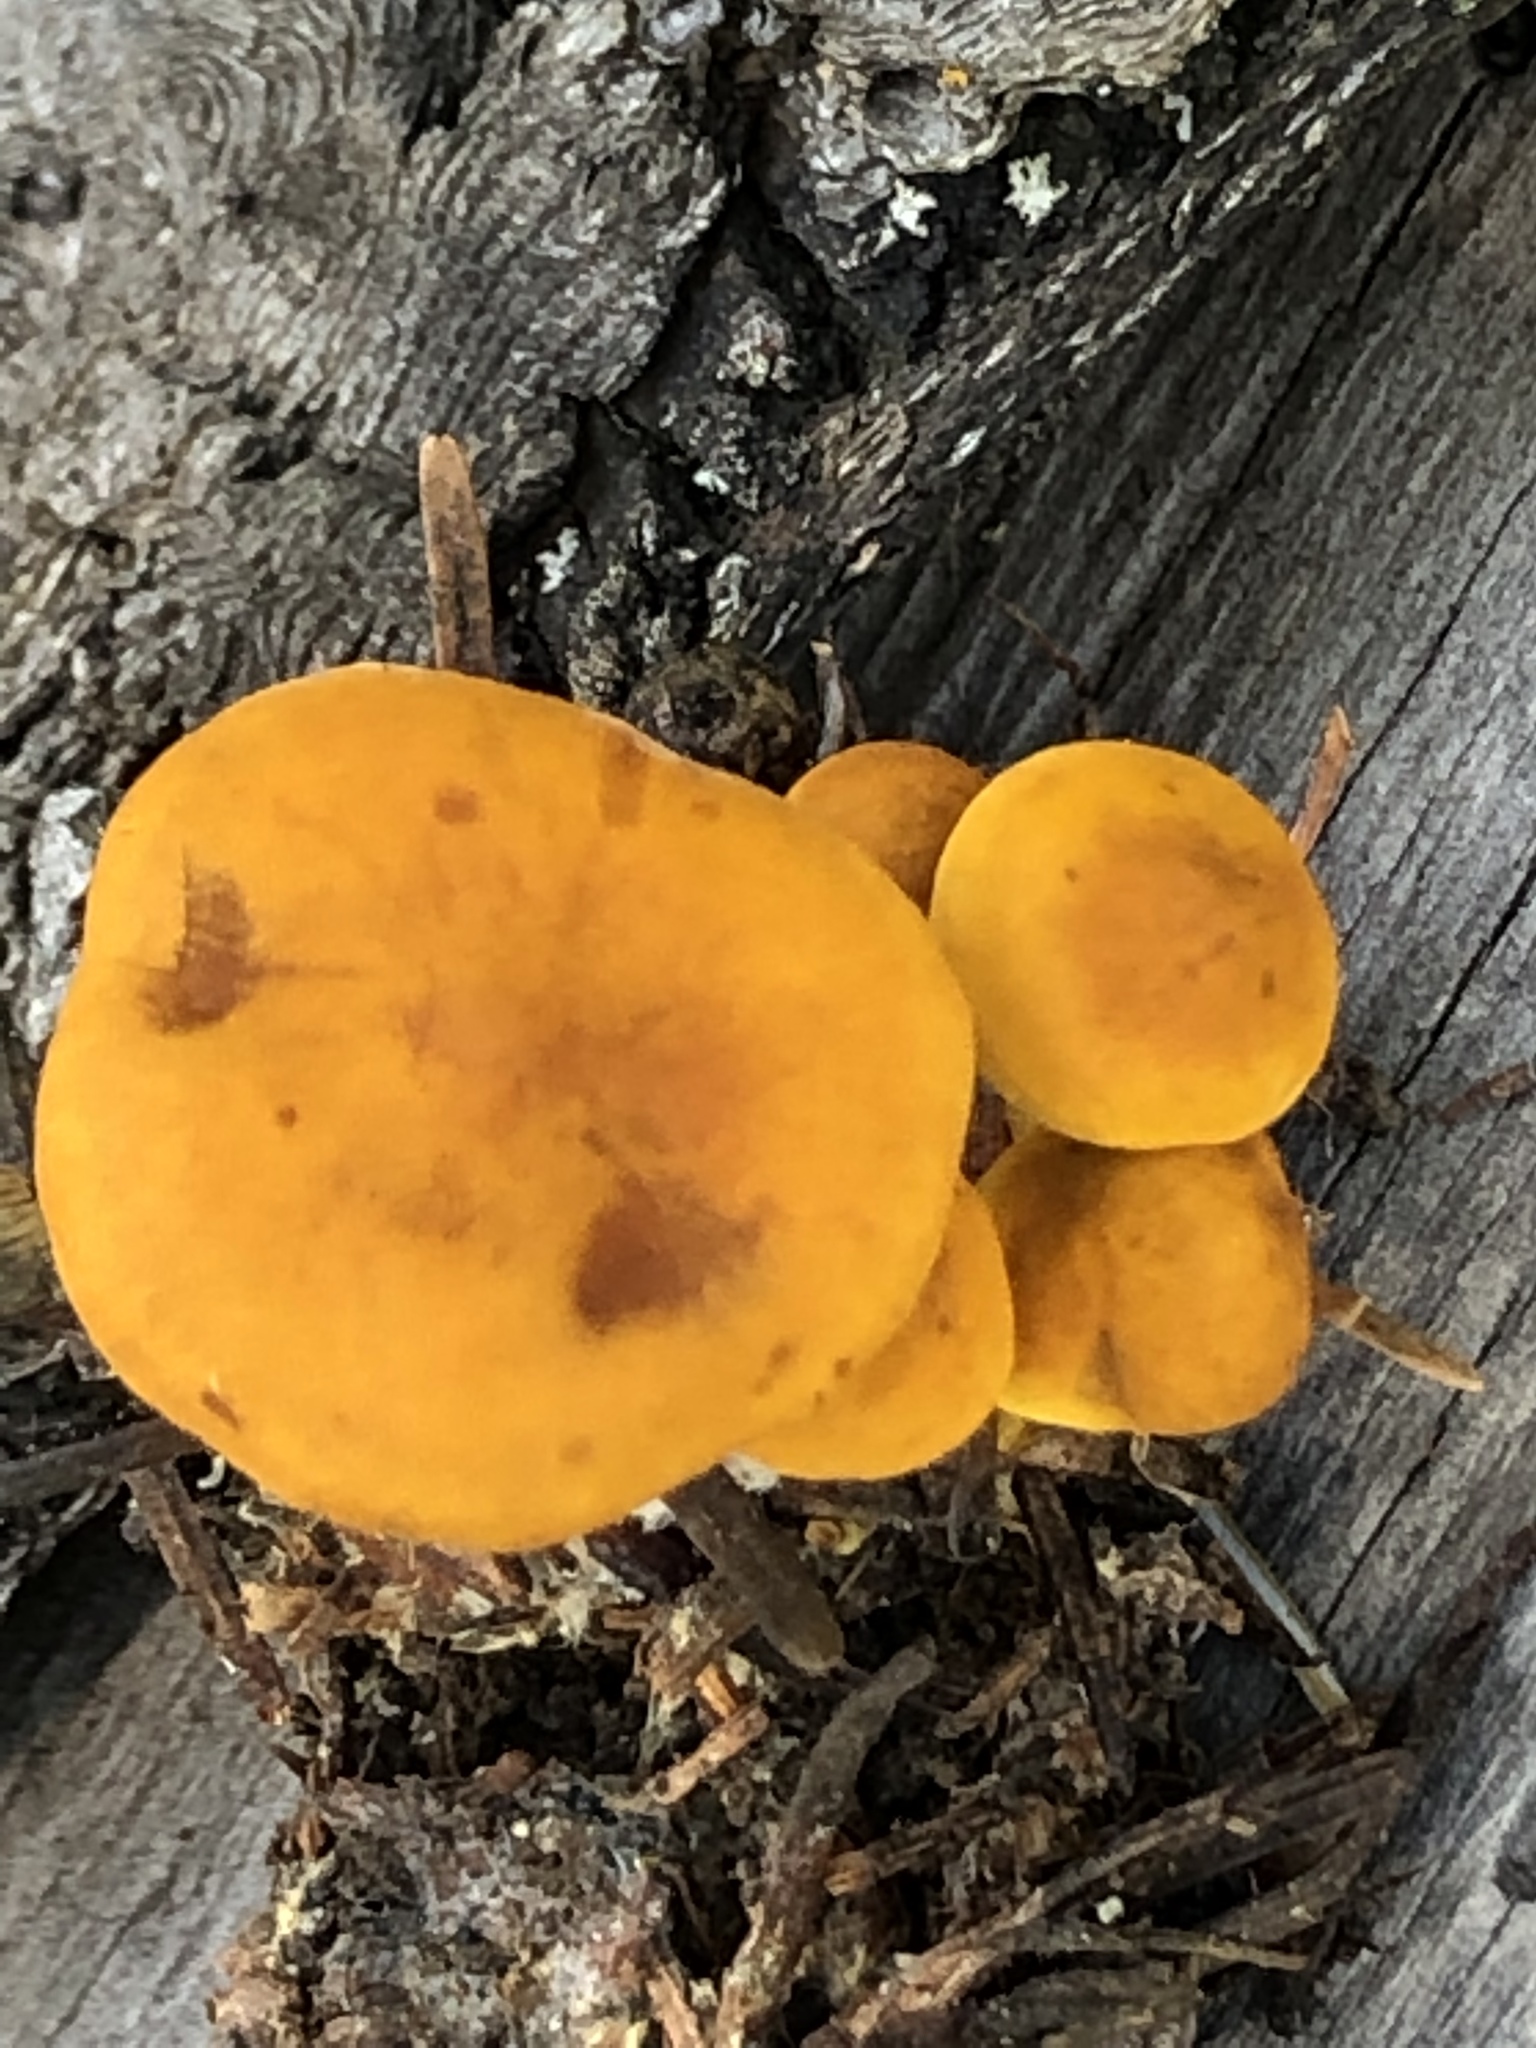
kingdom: Fungi
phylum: Basidiomycota
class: Agaricomycetes
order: Agaricales
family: Lyophyllaceae
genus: Calocybe
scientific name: Calocybe naucoria
